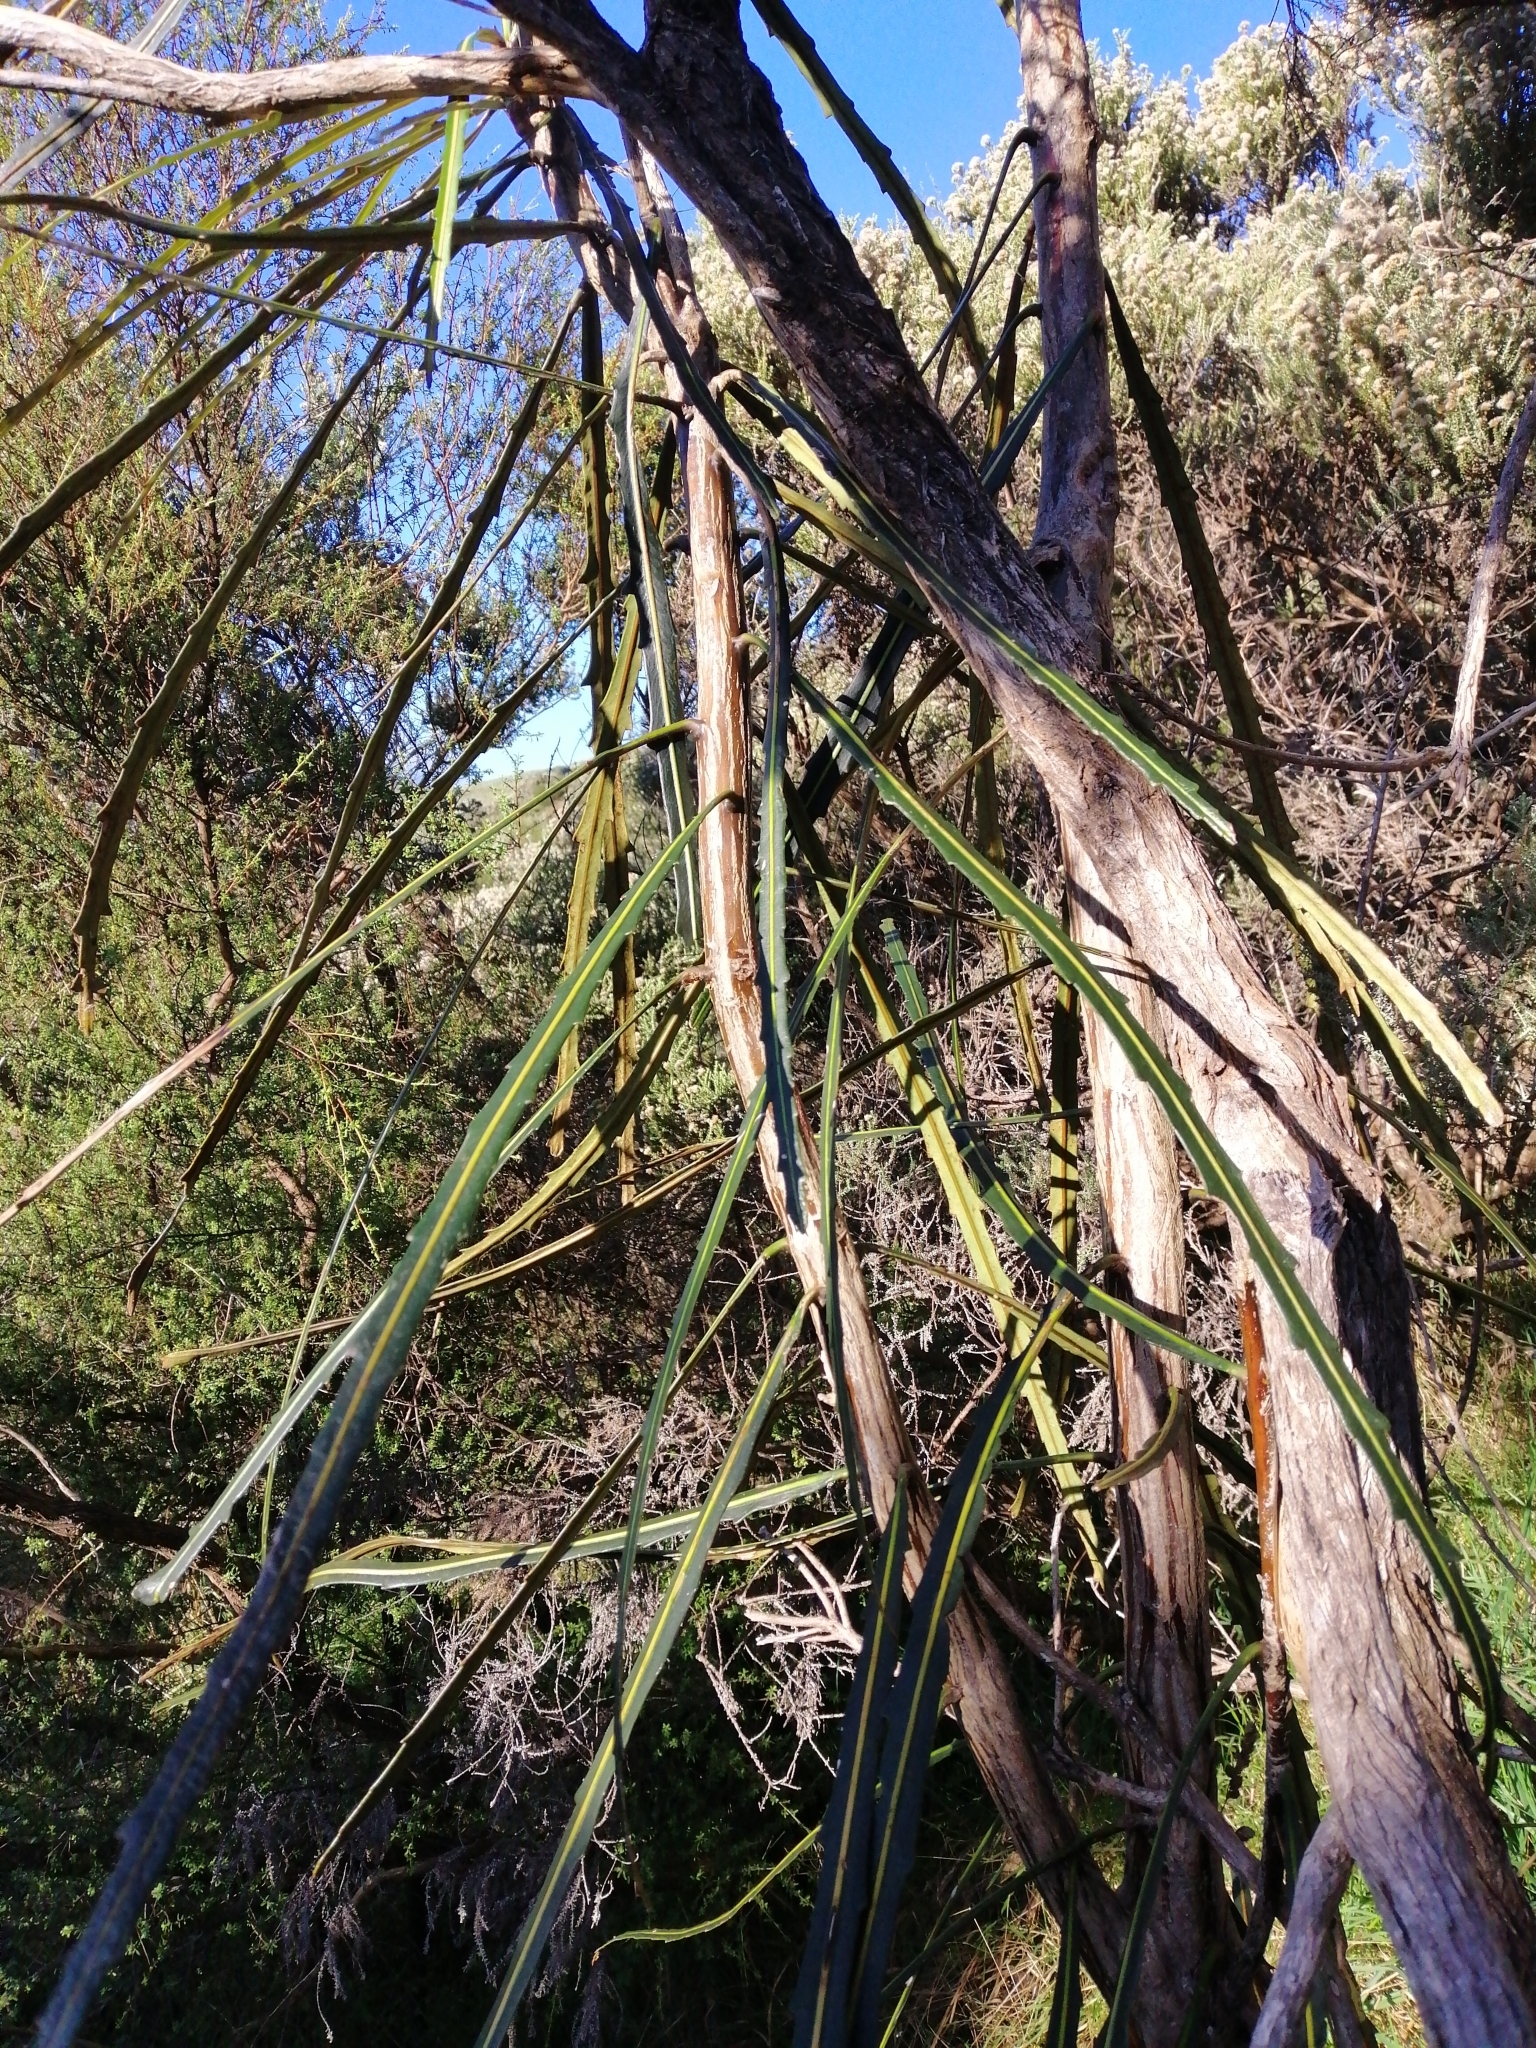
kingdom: Plantae
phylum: Tracheophyta
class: Magnoliopsida
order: Apiales
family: Araliaceae
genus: Pseudopanax
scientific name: Pseudopanax crassifolius
